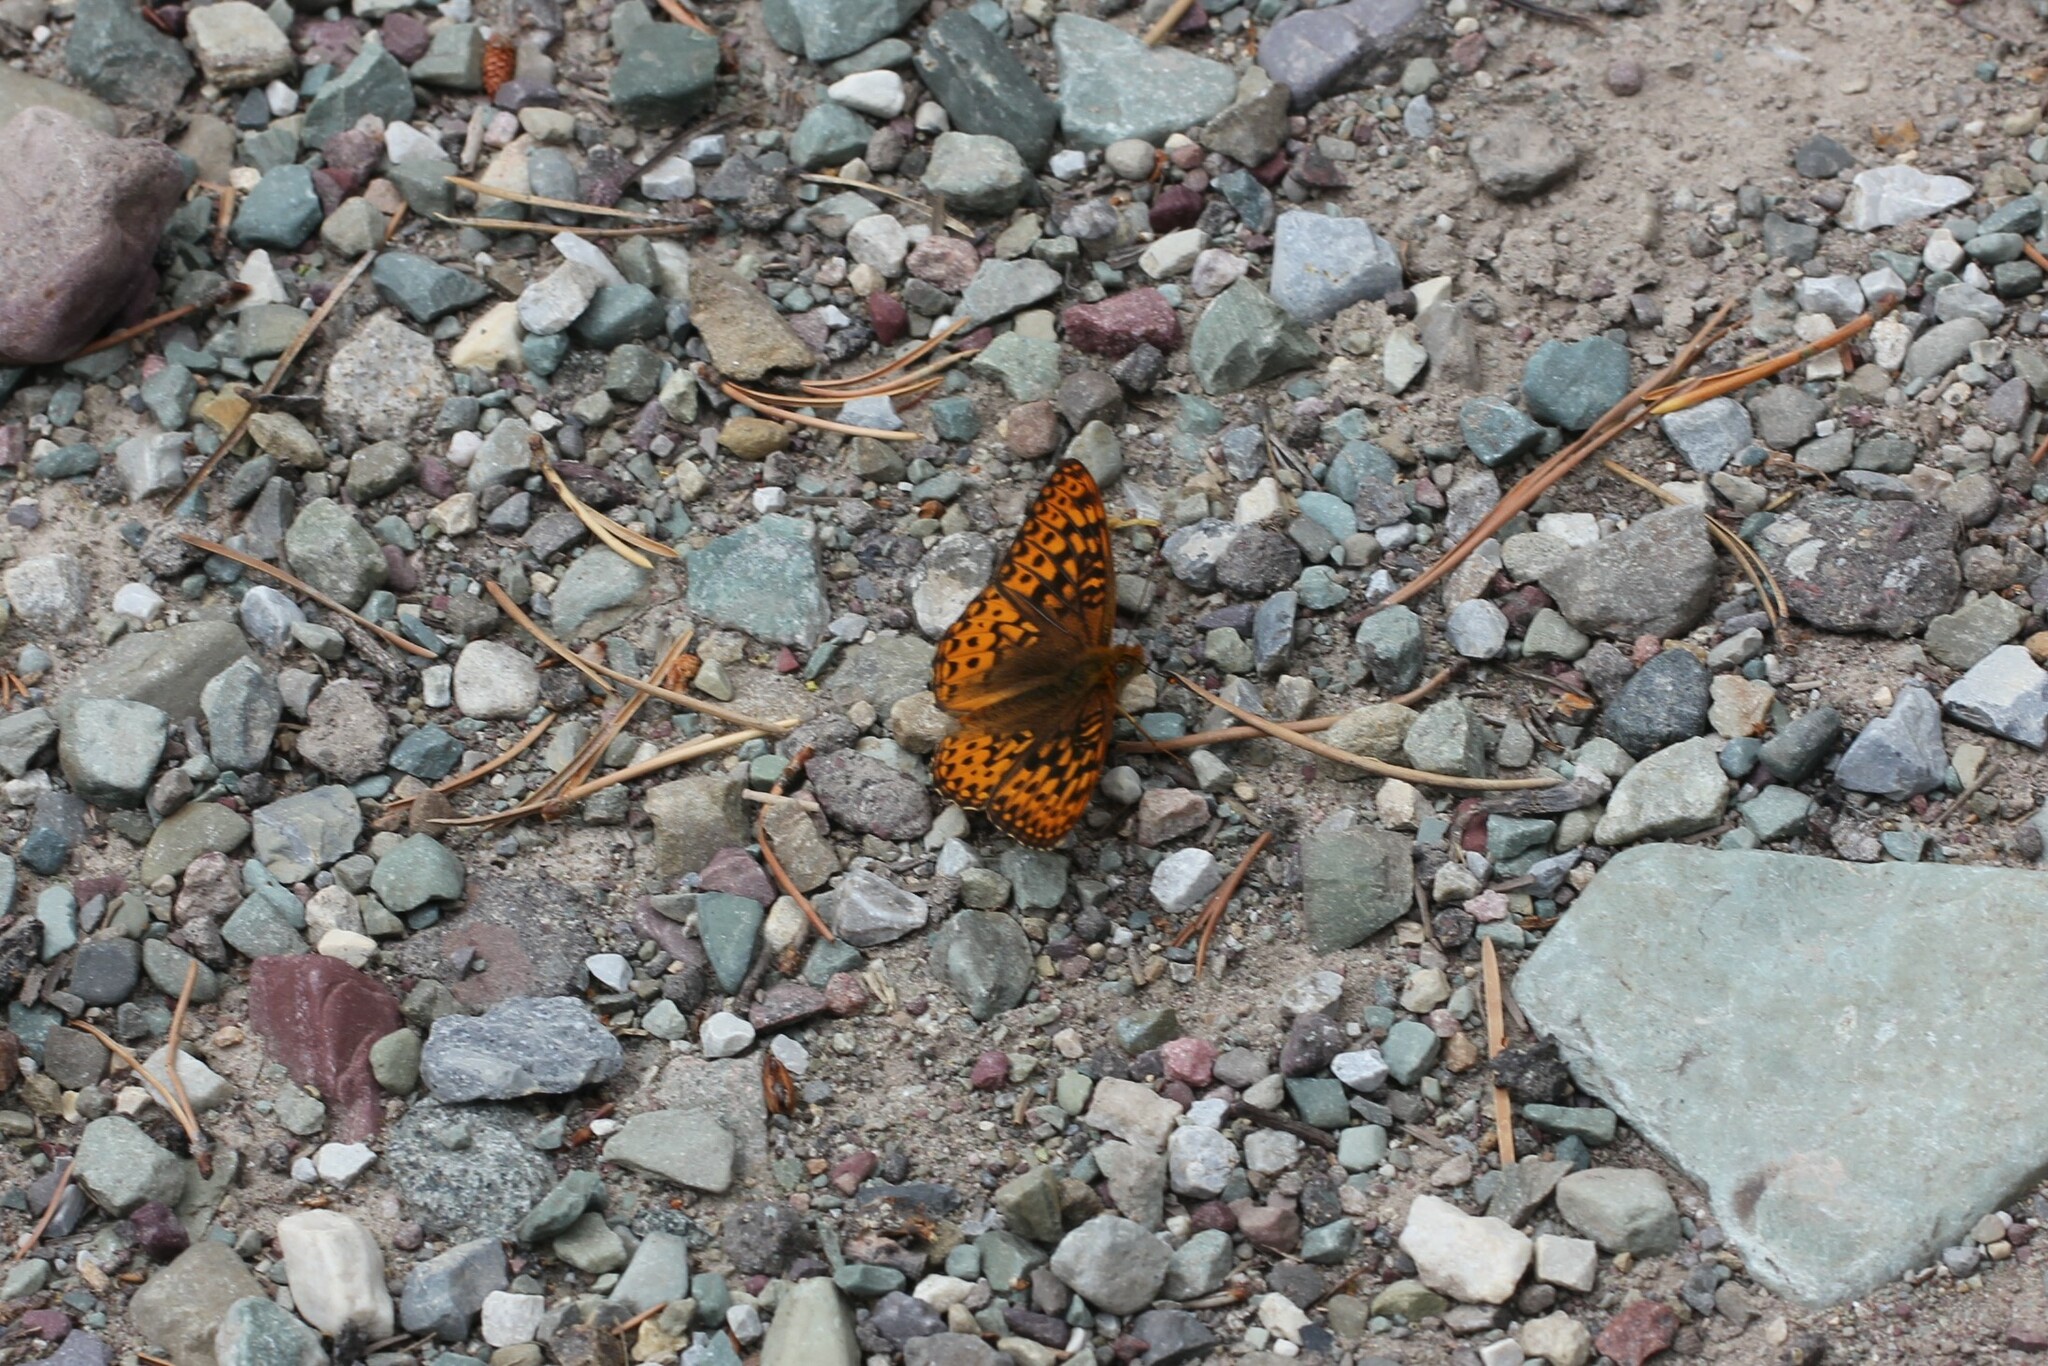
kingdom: Animalia
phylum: Arthropoda
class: Insecta
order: Lepidoptera
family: Nymphalidae
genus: Speyeria
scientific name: Speyeria hydaspe
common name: Hydaspe fritillary
